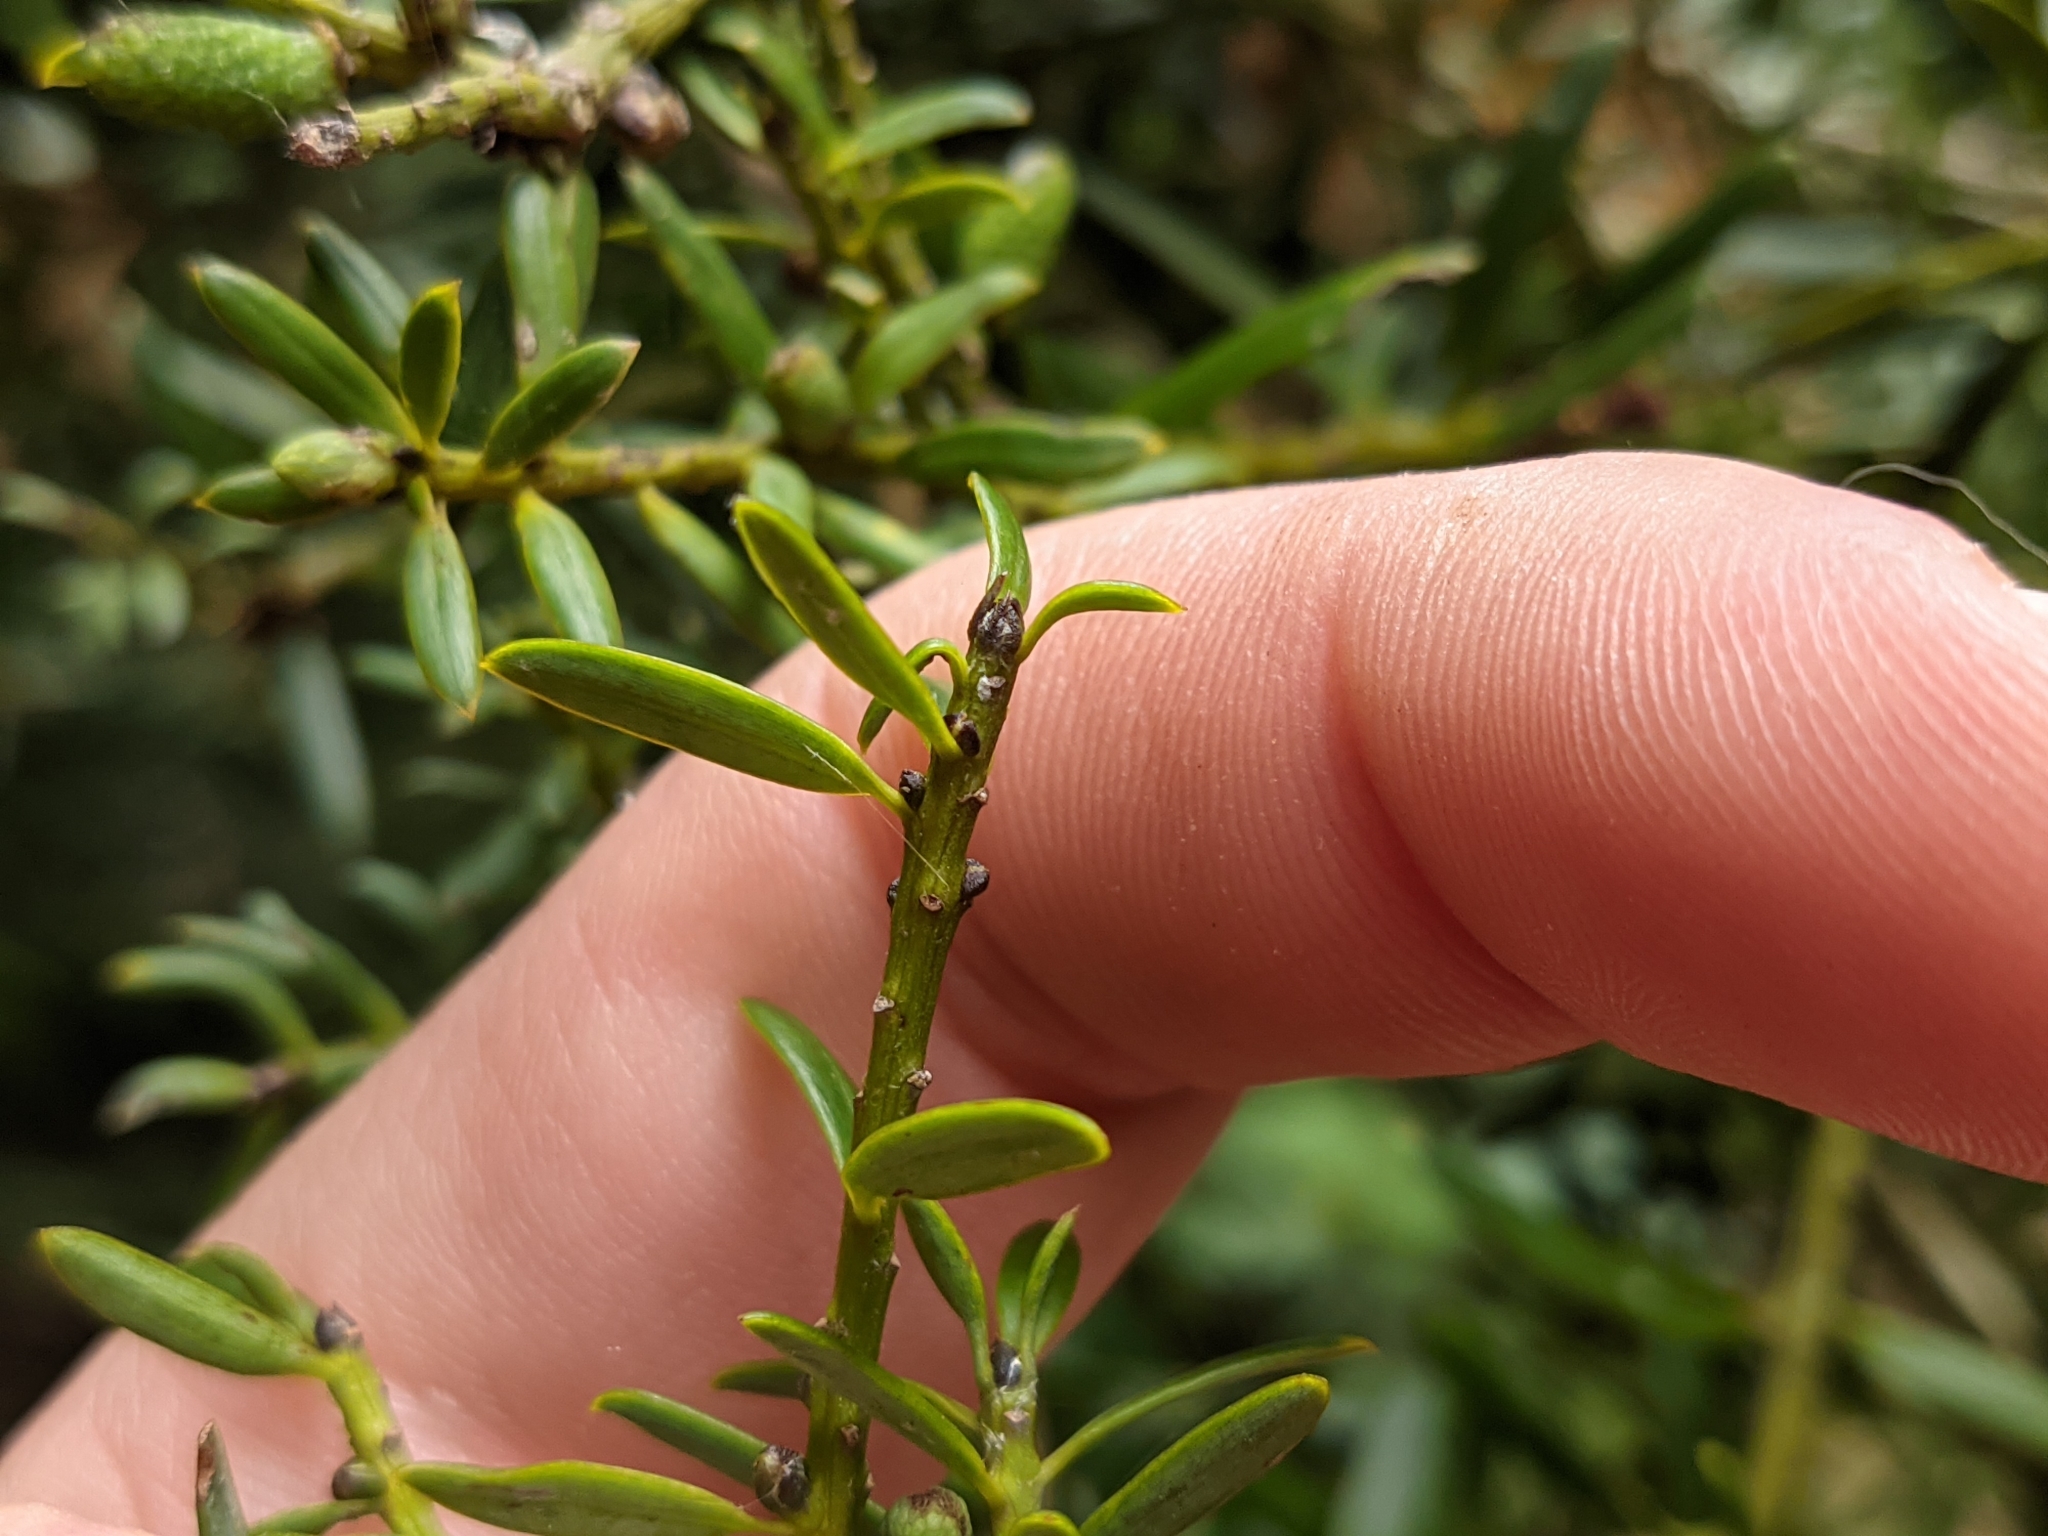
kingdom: Plantae
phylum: Tracheophyta
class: Pinopsida
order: Pinales
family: Podocarpaceae
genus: Podocarpus
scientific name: Podocarpus totara
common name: Totara
